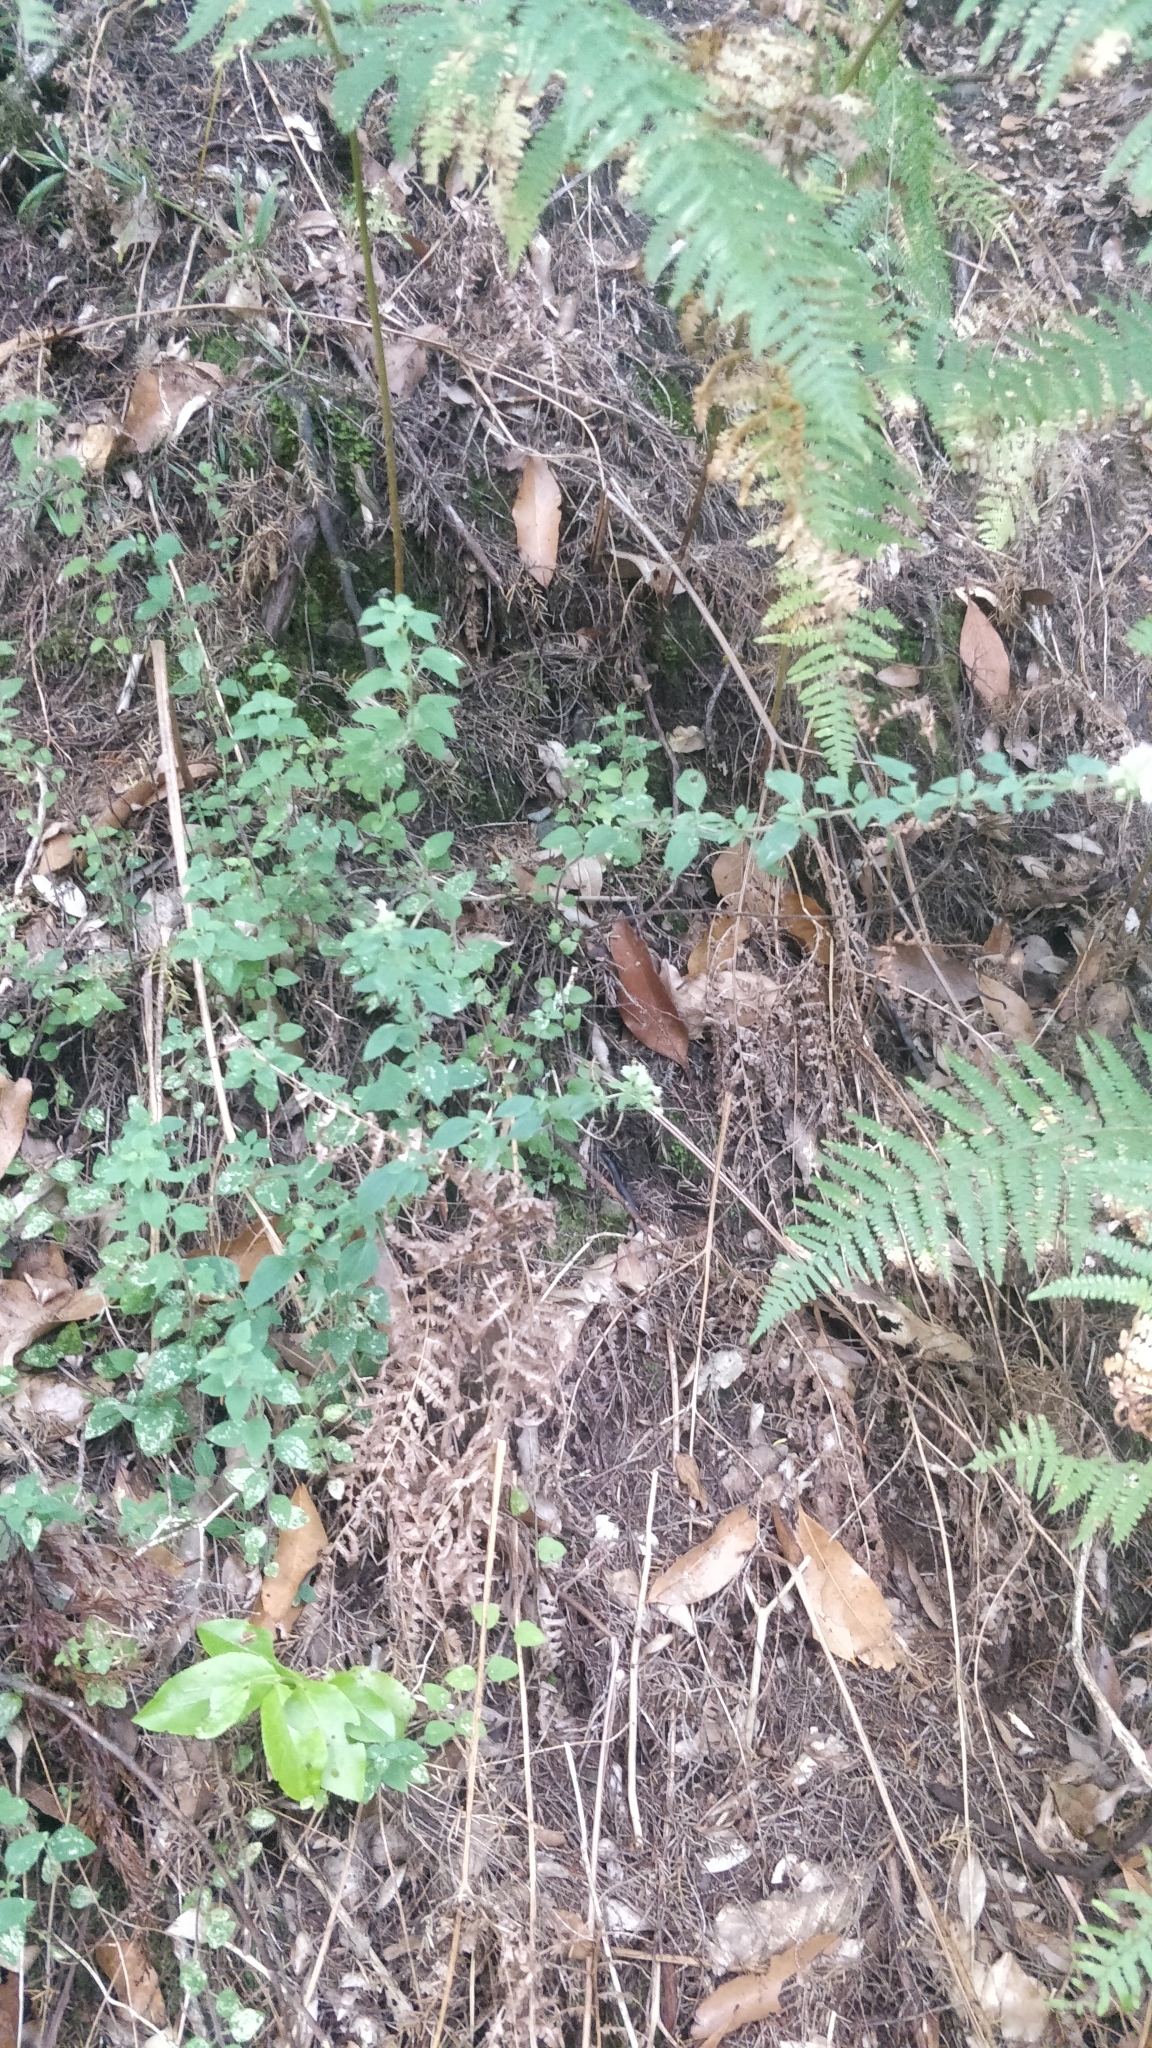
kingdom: Plantae
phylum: Tracheophyta
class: Magnoliopsida
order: Lamiales
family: Lamiaceae
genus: Origanum
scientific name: Origanum vulgare
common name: Wild marjoram
